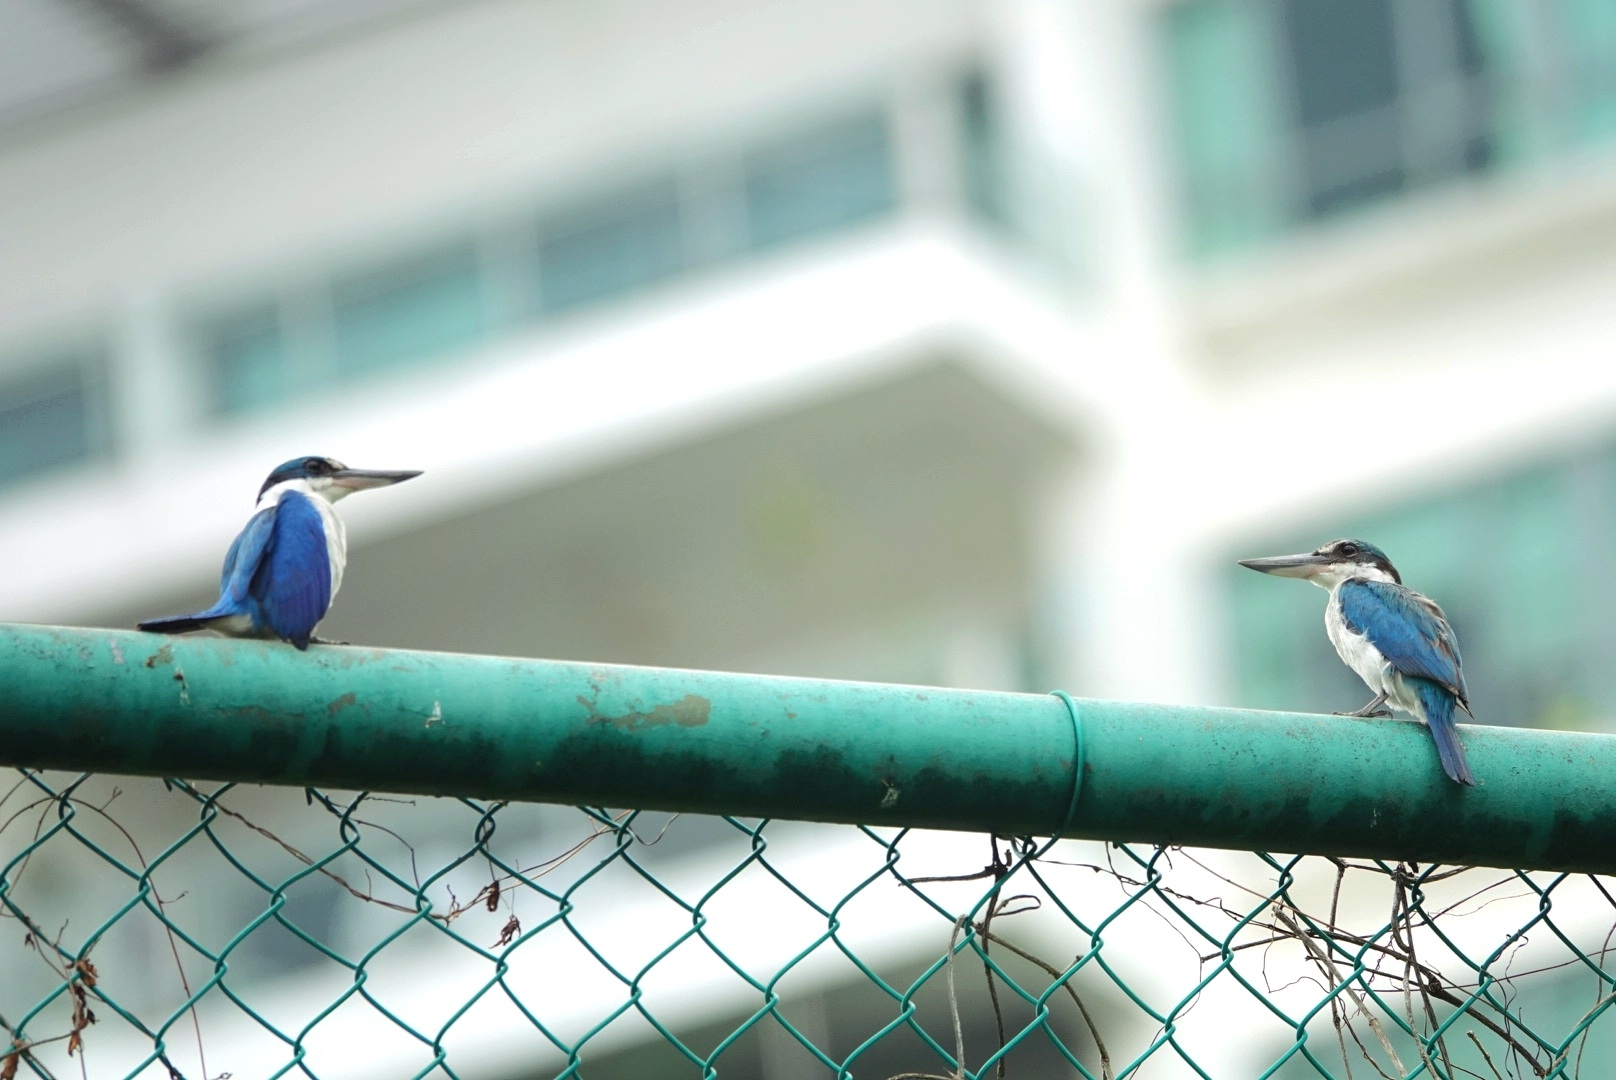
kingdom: Animalia
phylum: Chordata
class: Aves
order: Coraciiformes
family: Alcedinidae
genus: Todiramphus
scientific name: Todiramphus chloris
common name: Collared kingfisher
